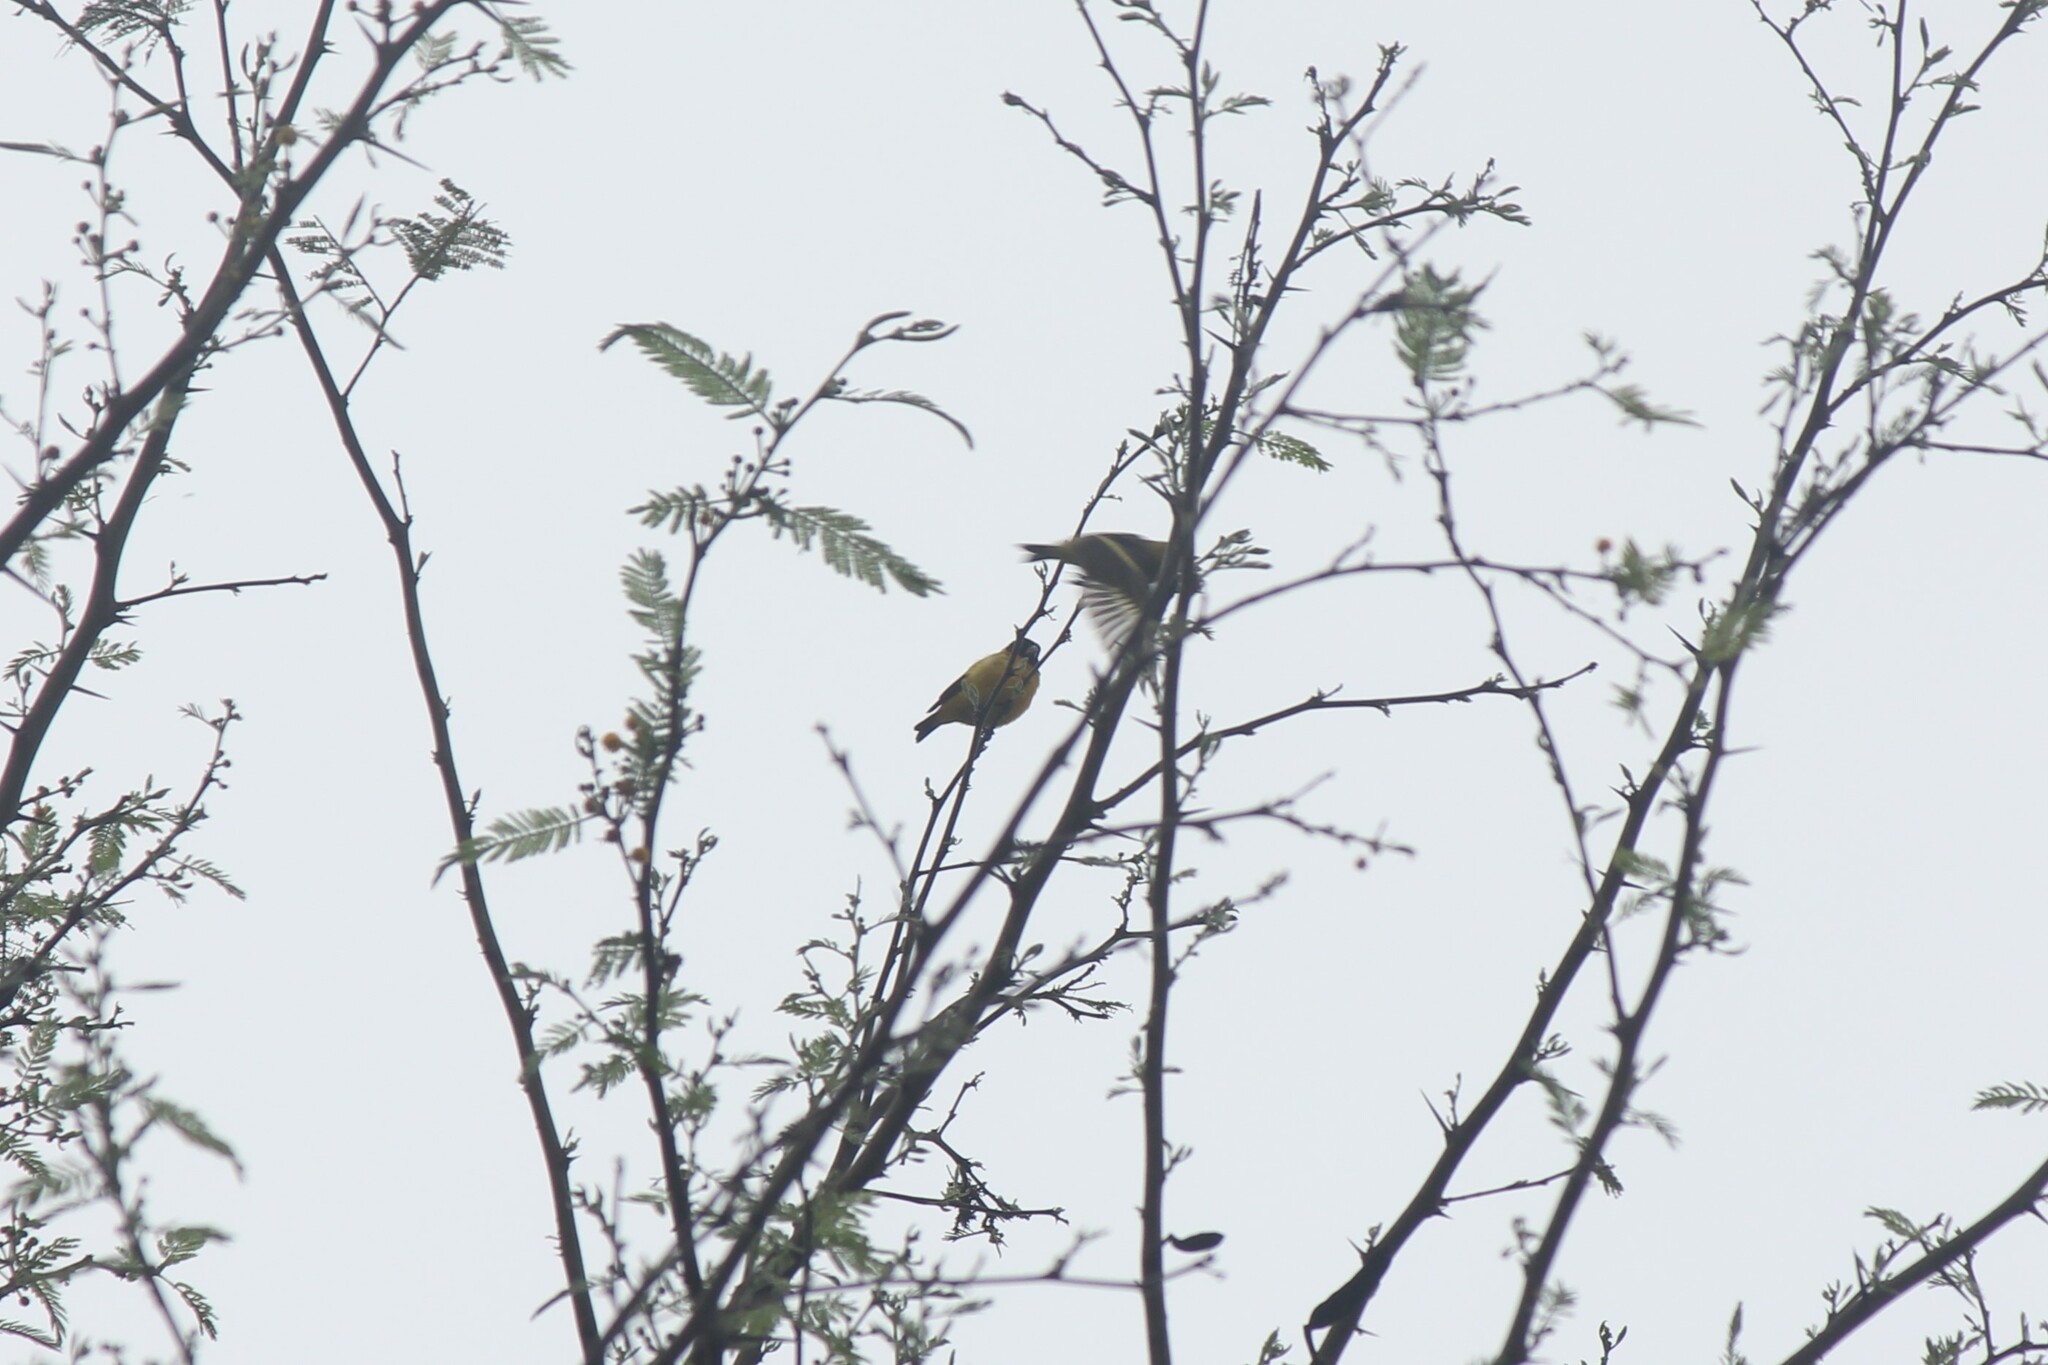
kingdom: Animalia
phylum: Chordata
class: Aves
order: Passeriformes
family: Fringillidae
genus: Spinus
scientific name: Spinus siemiradzkii
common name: Saffron siskin
